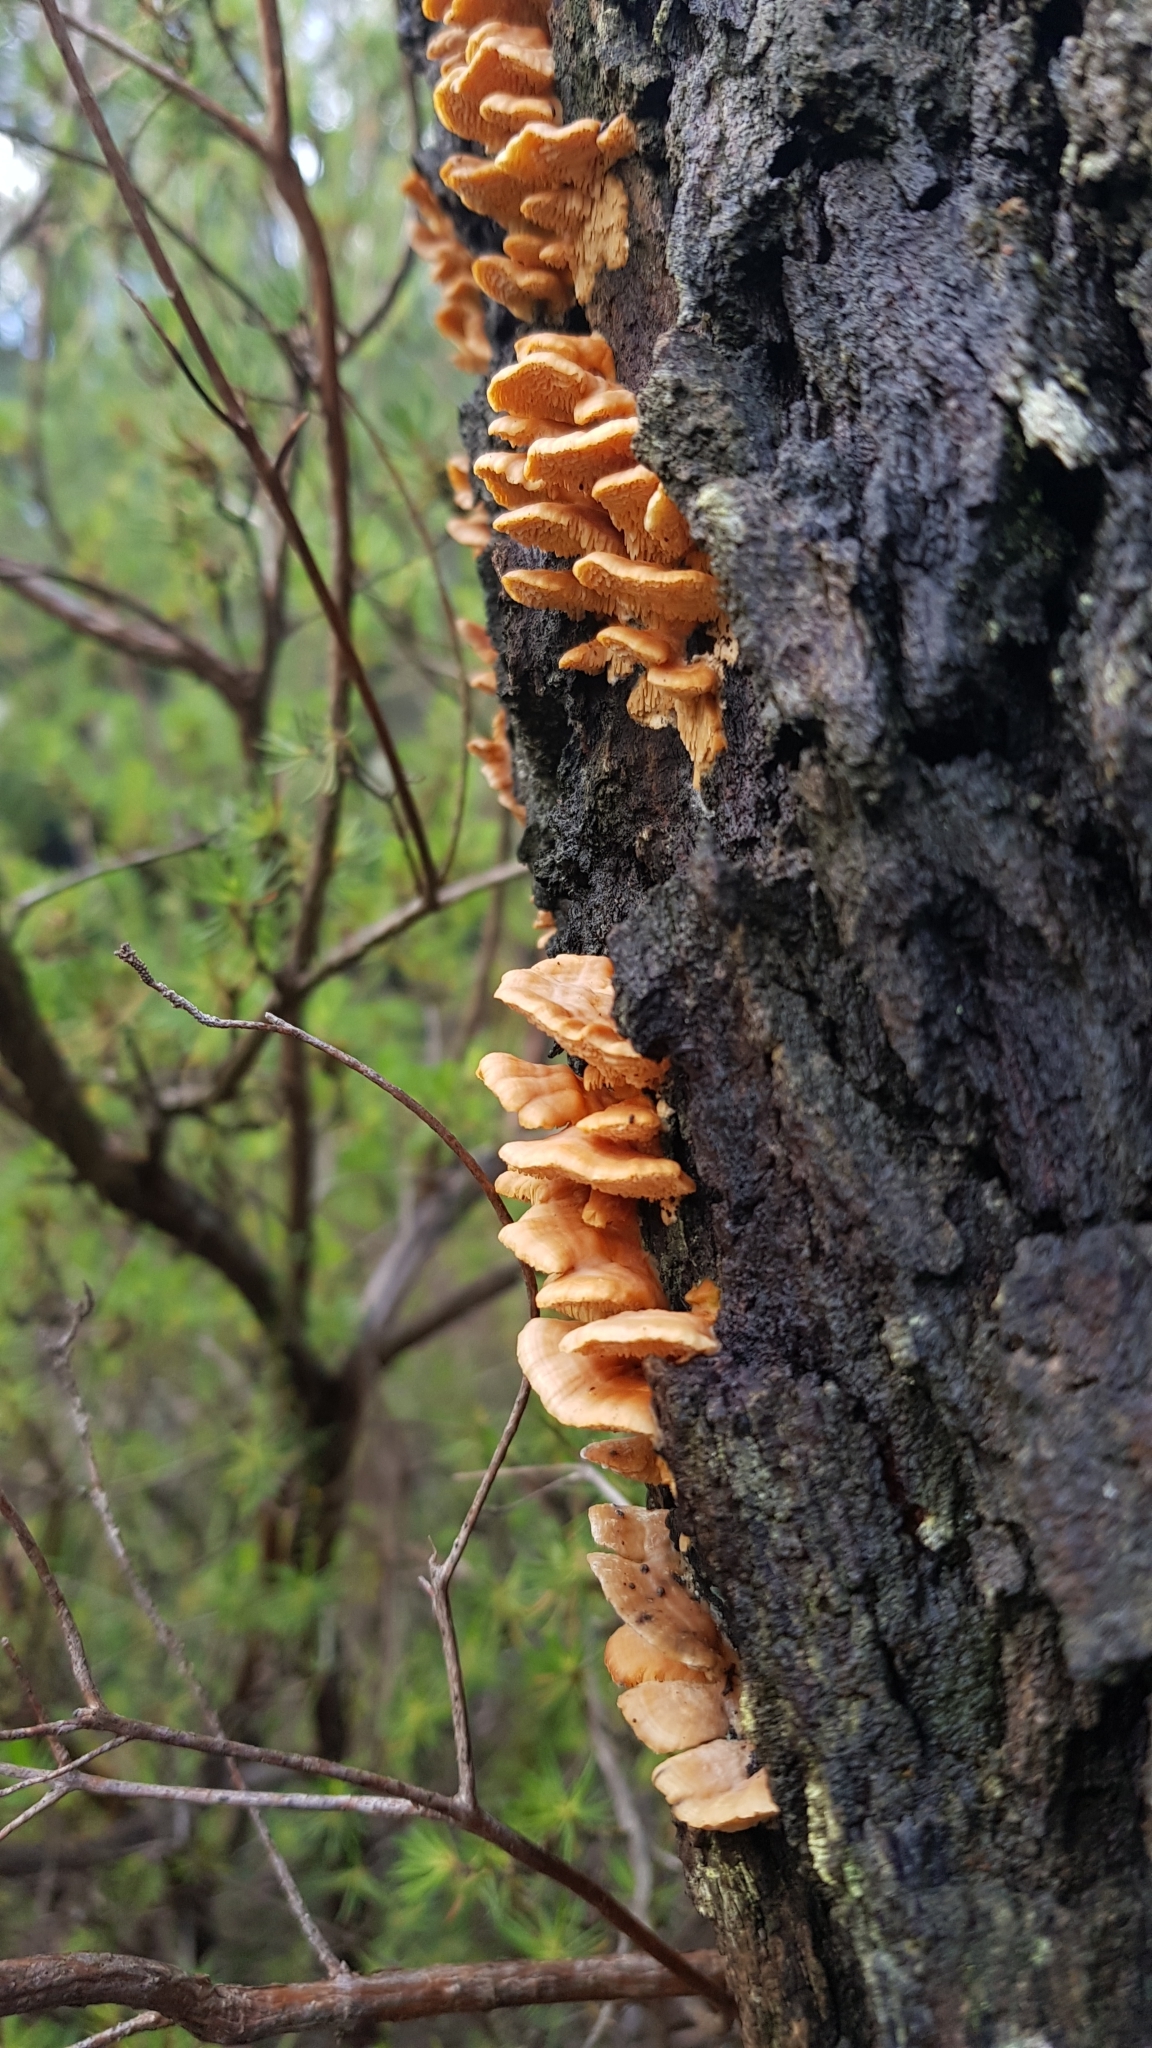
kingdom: Fungi
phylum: Basidiomycota
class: Agaricomycetes
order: Polyporales
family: Cerrenaceae
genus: Cerrena
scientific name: Cerrena zonata
